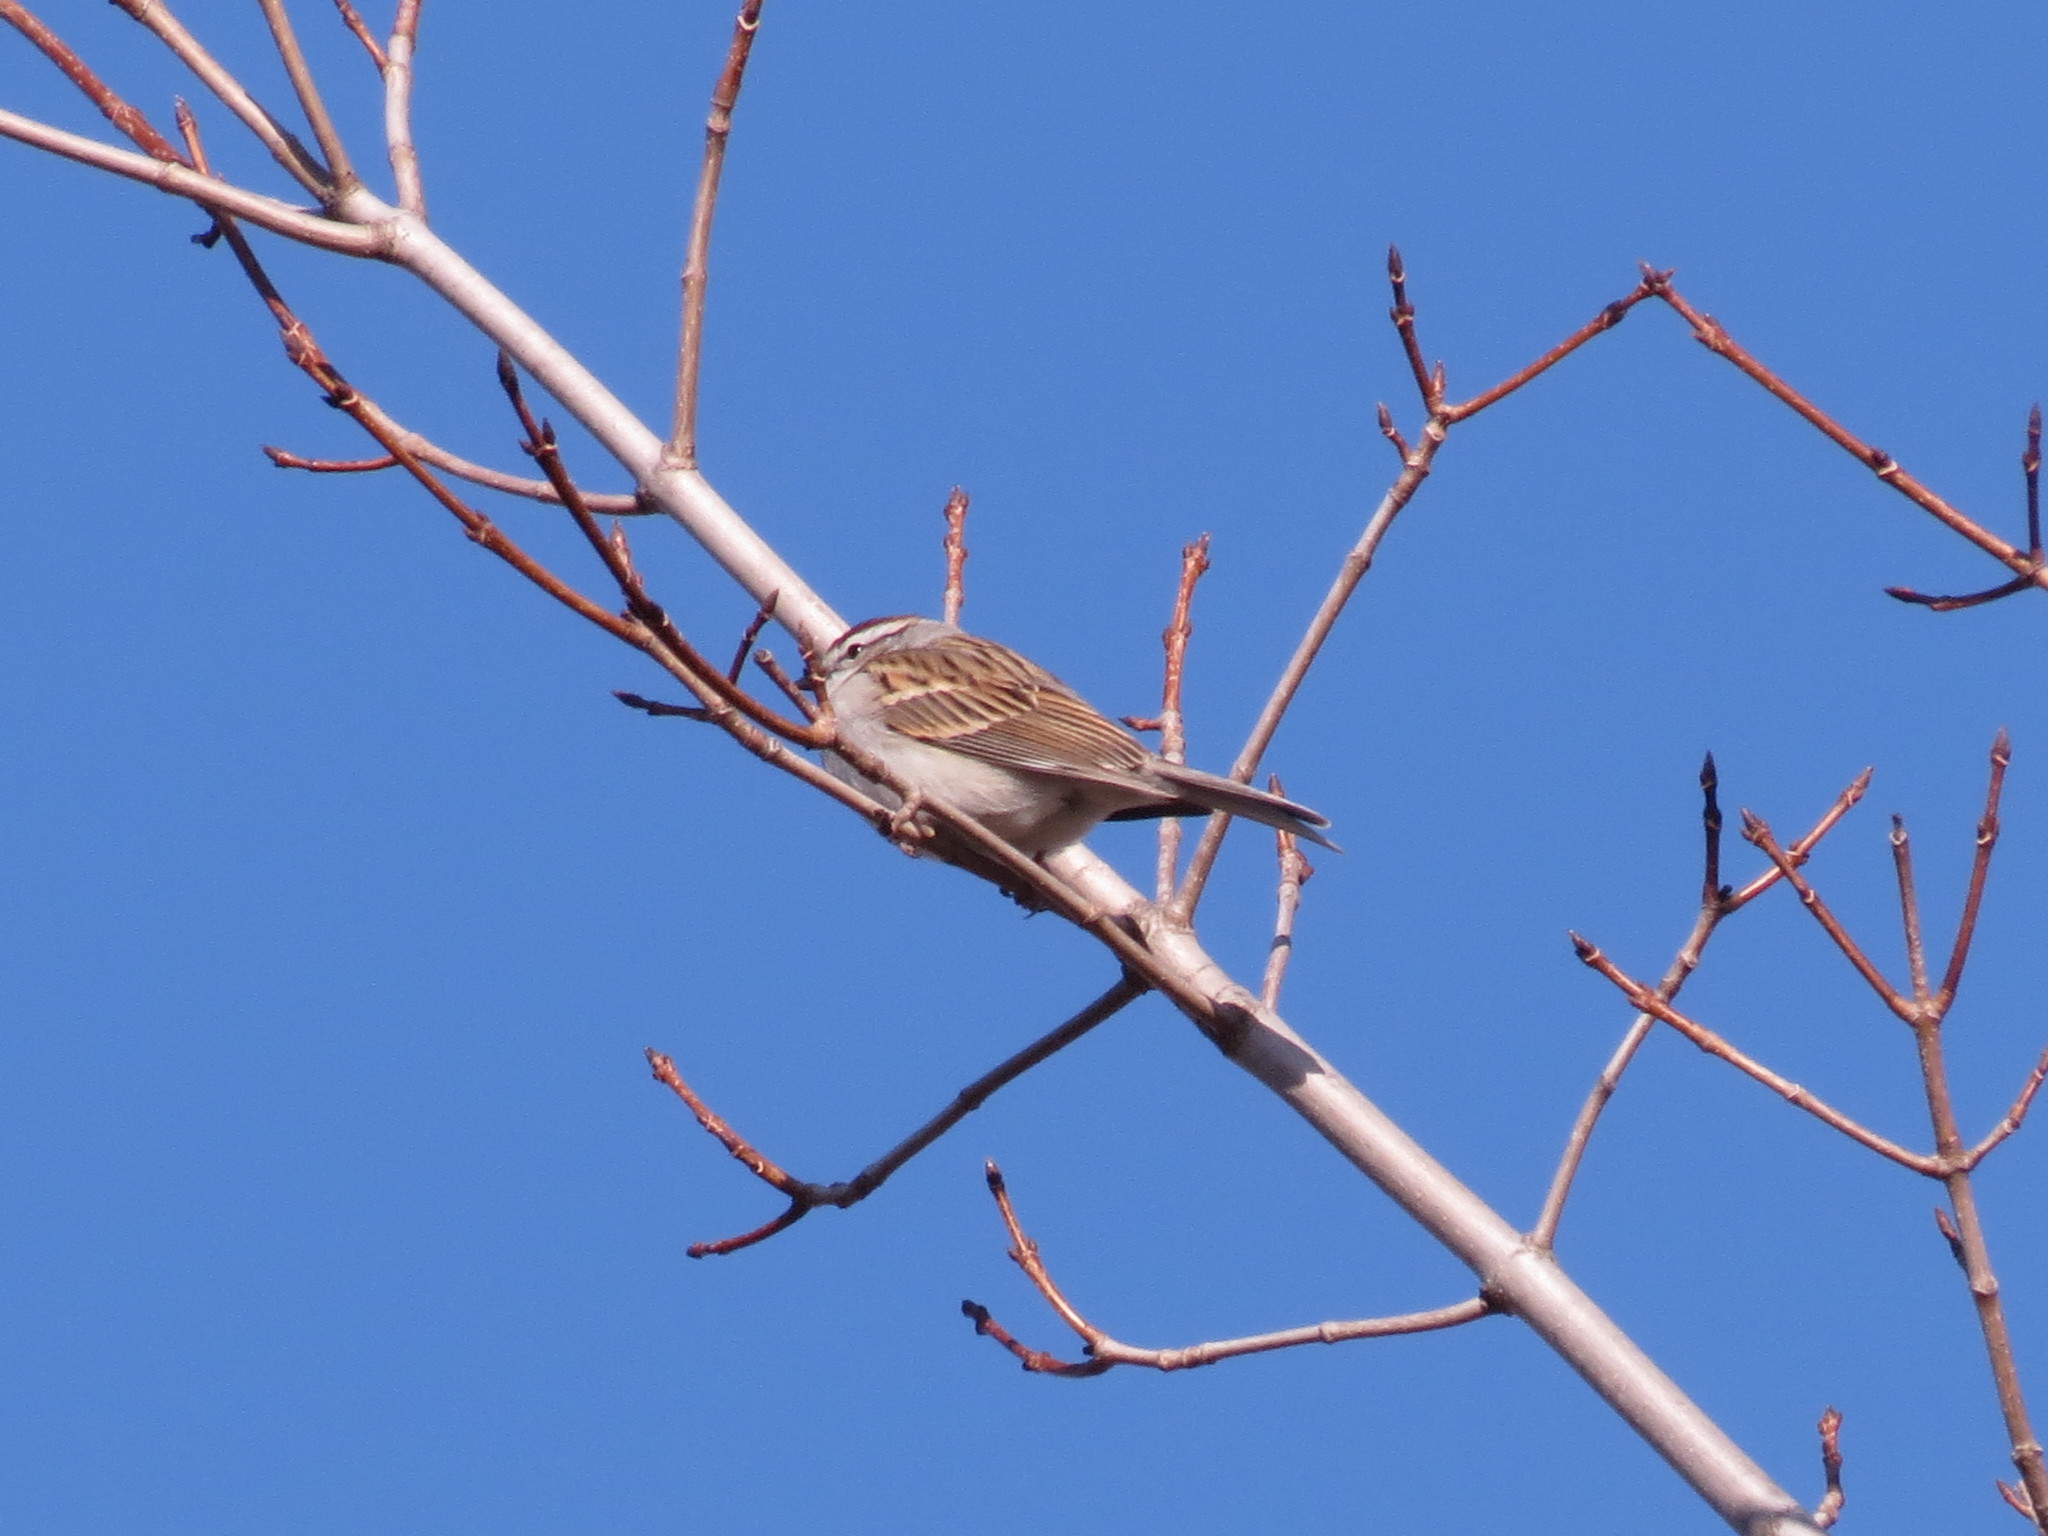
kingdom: Animalia
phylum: Chordata
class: Aves
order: Passeriformes
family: Passerellidae
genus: Spizella
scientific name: Spizella passerina
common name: Chipping sparrow
